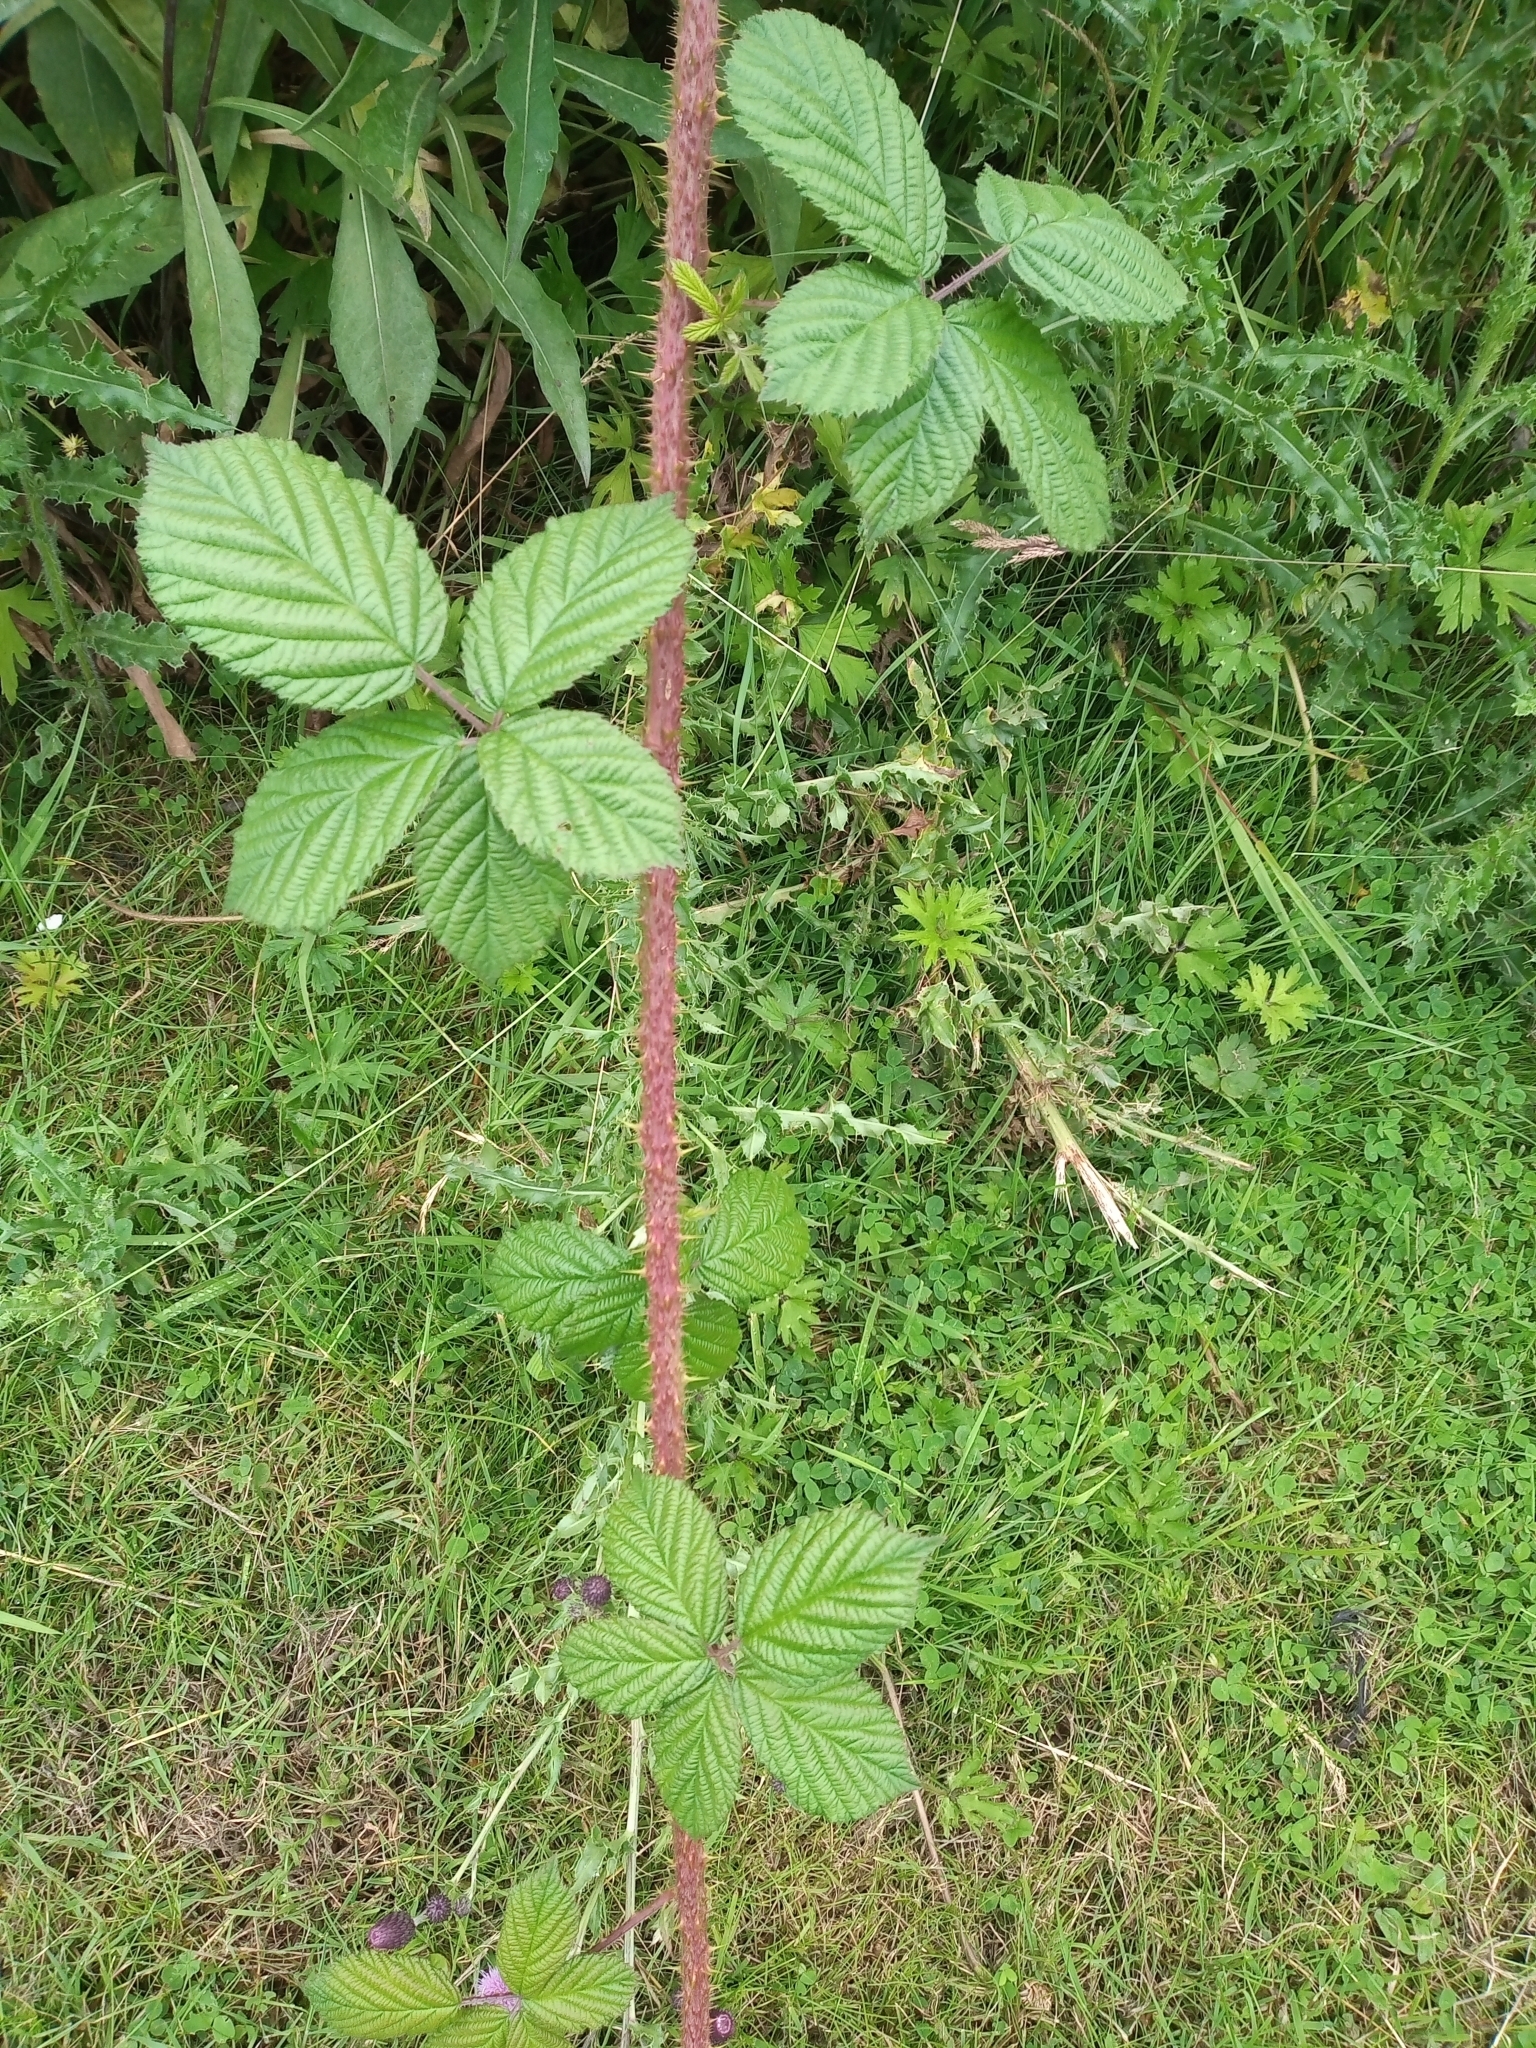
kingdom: Plantae
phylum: Tracheophyta
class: Magnoliopsida
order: Rosales
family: Rosaceae
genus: Rubus
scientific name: Rubus horrefactus
